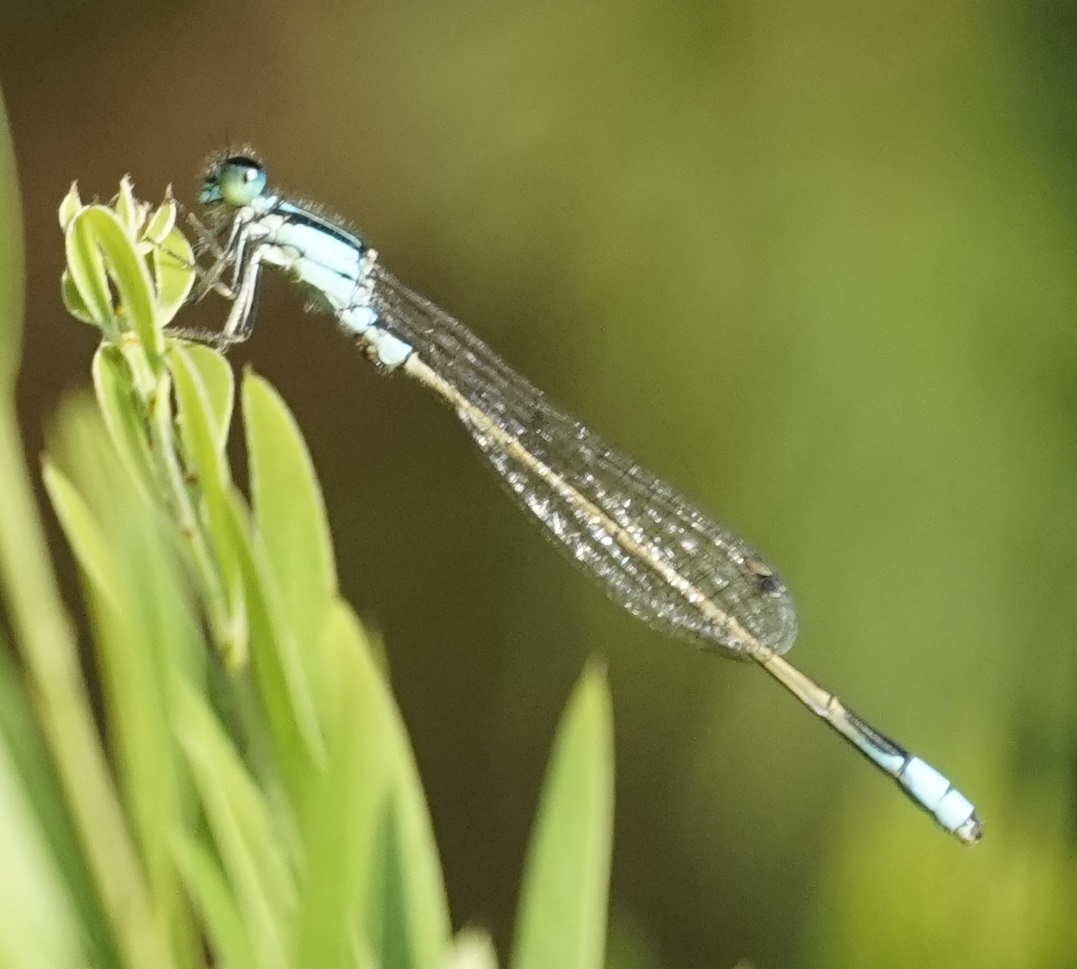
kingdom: Animalia
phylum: Arthropoda
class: Insecta
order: Odonata
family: Coenagrionidae
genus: Ischnura
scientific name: Ischnura heterosticta
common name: Common bluetail
